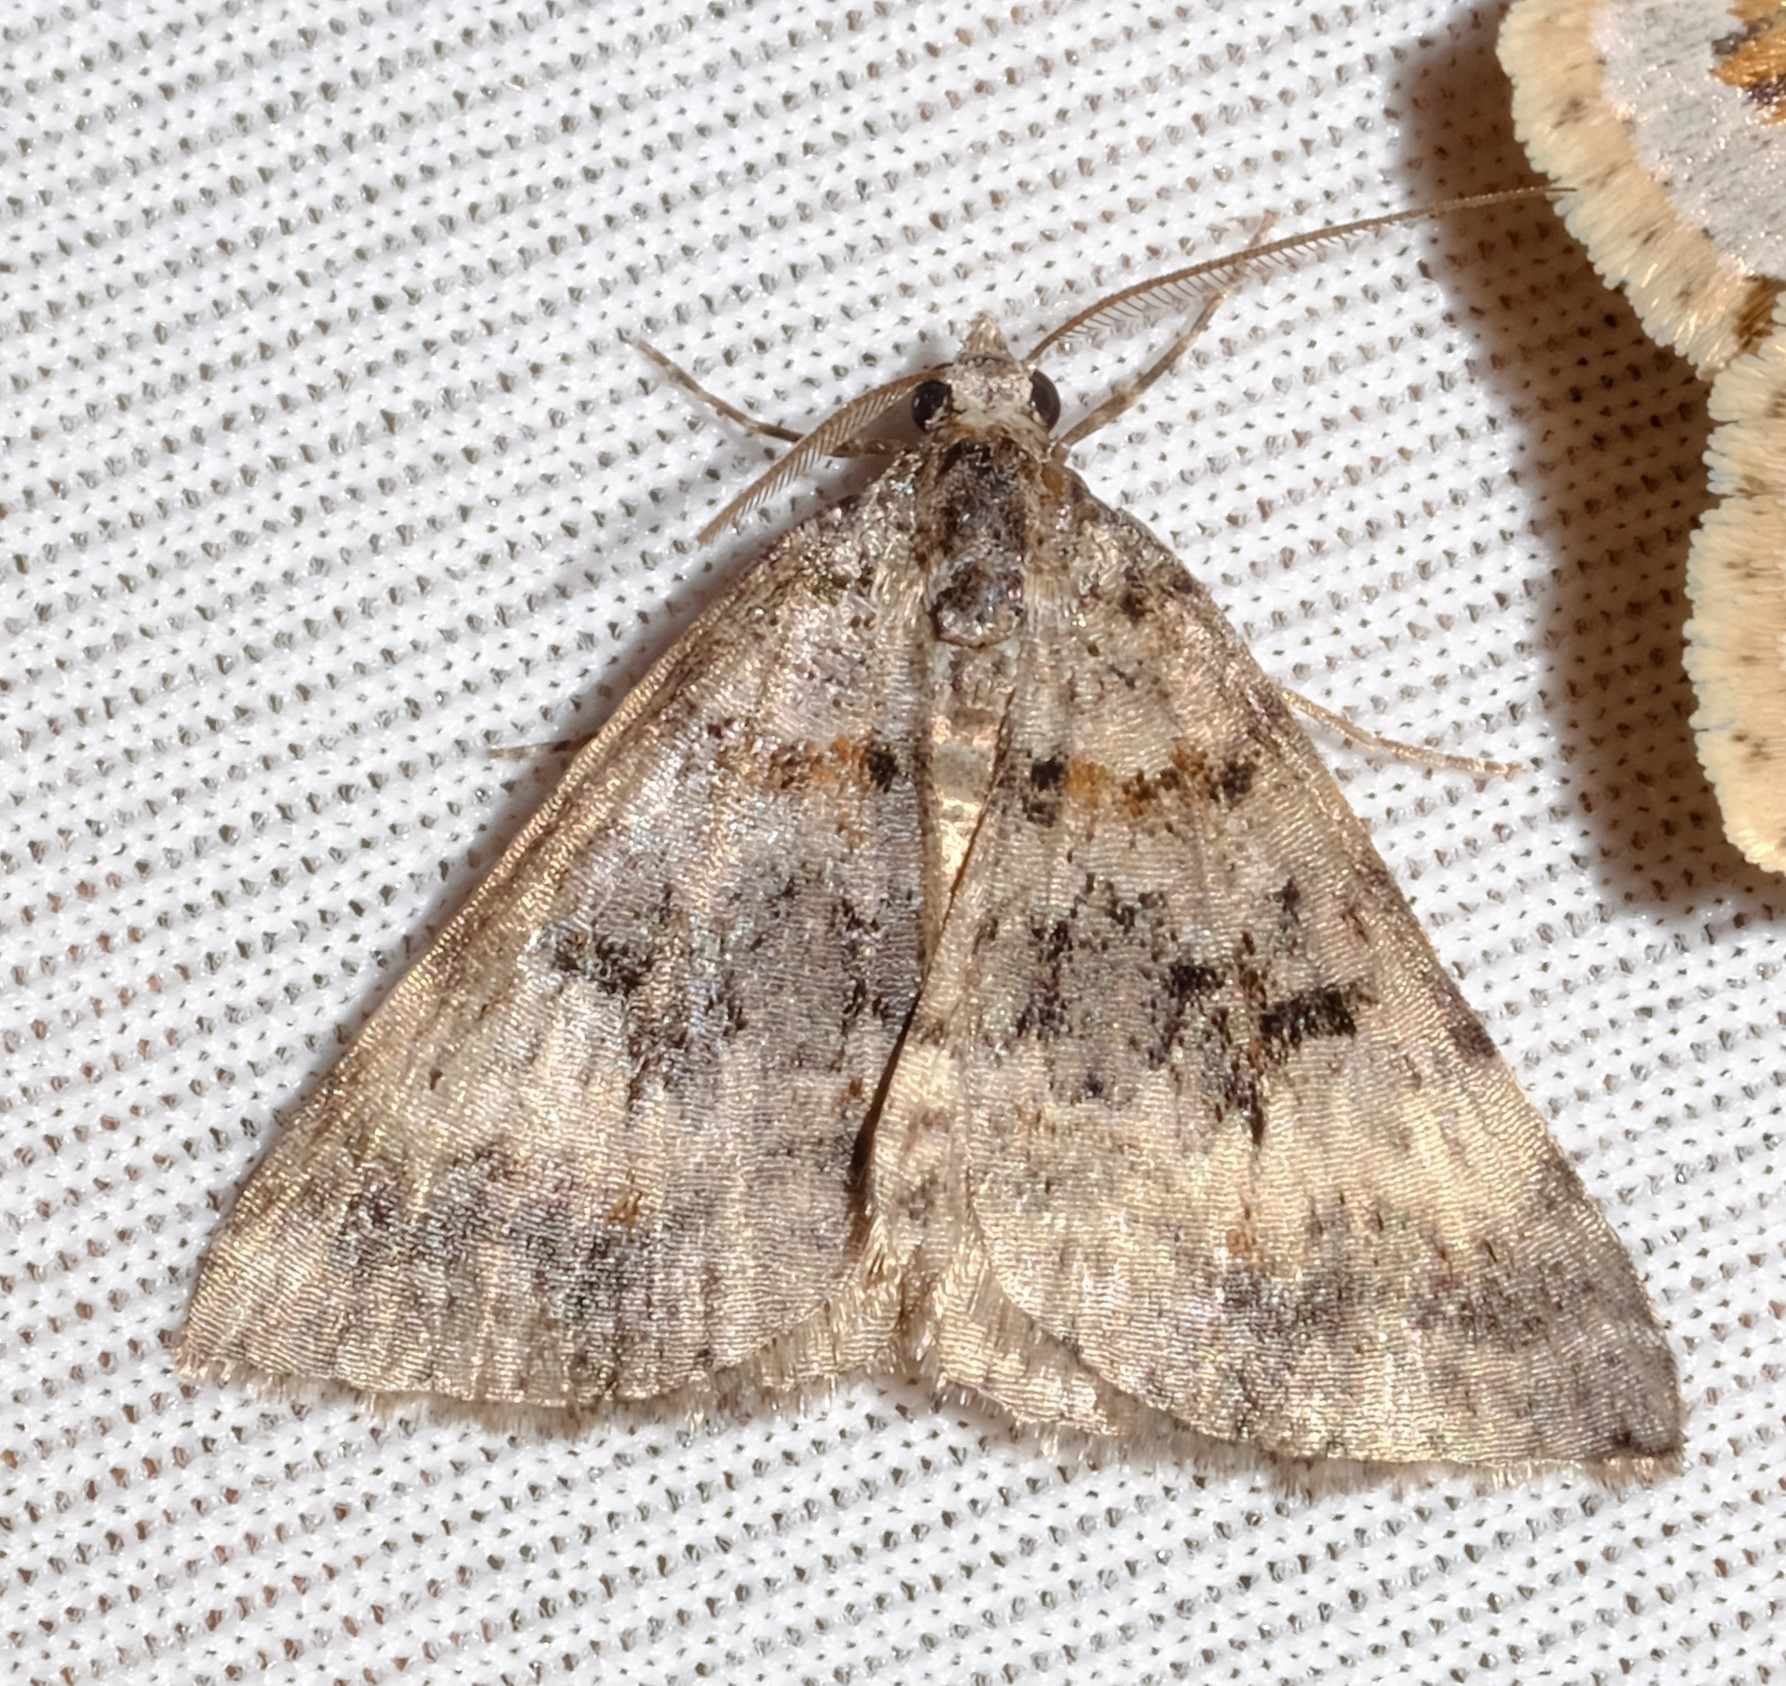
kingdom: Animalia
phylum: Arthropoda
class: Insecta
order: Lepidoptera
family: Geometridae
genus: Dichromodes
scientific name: Dichromodes longidens
